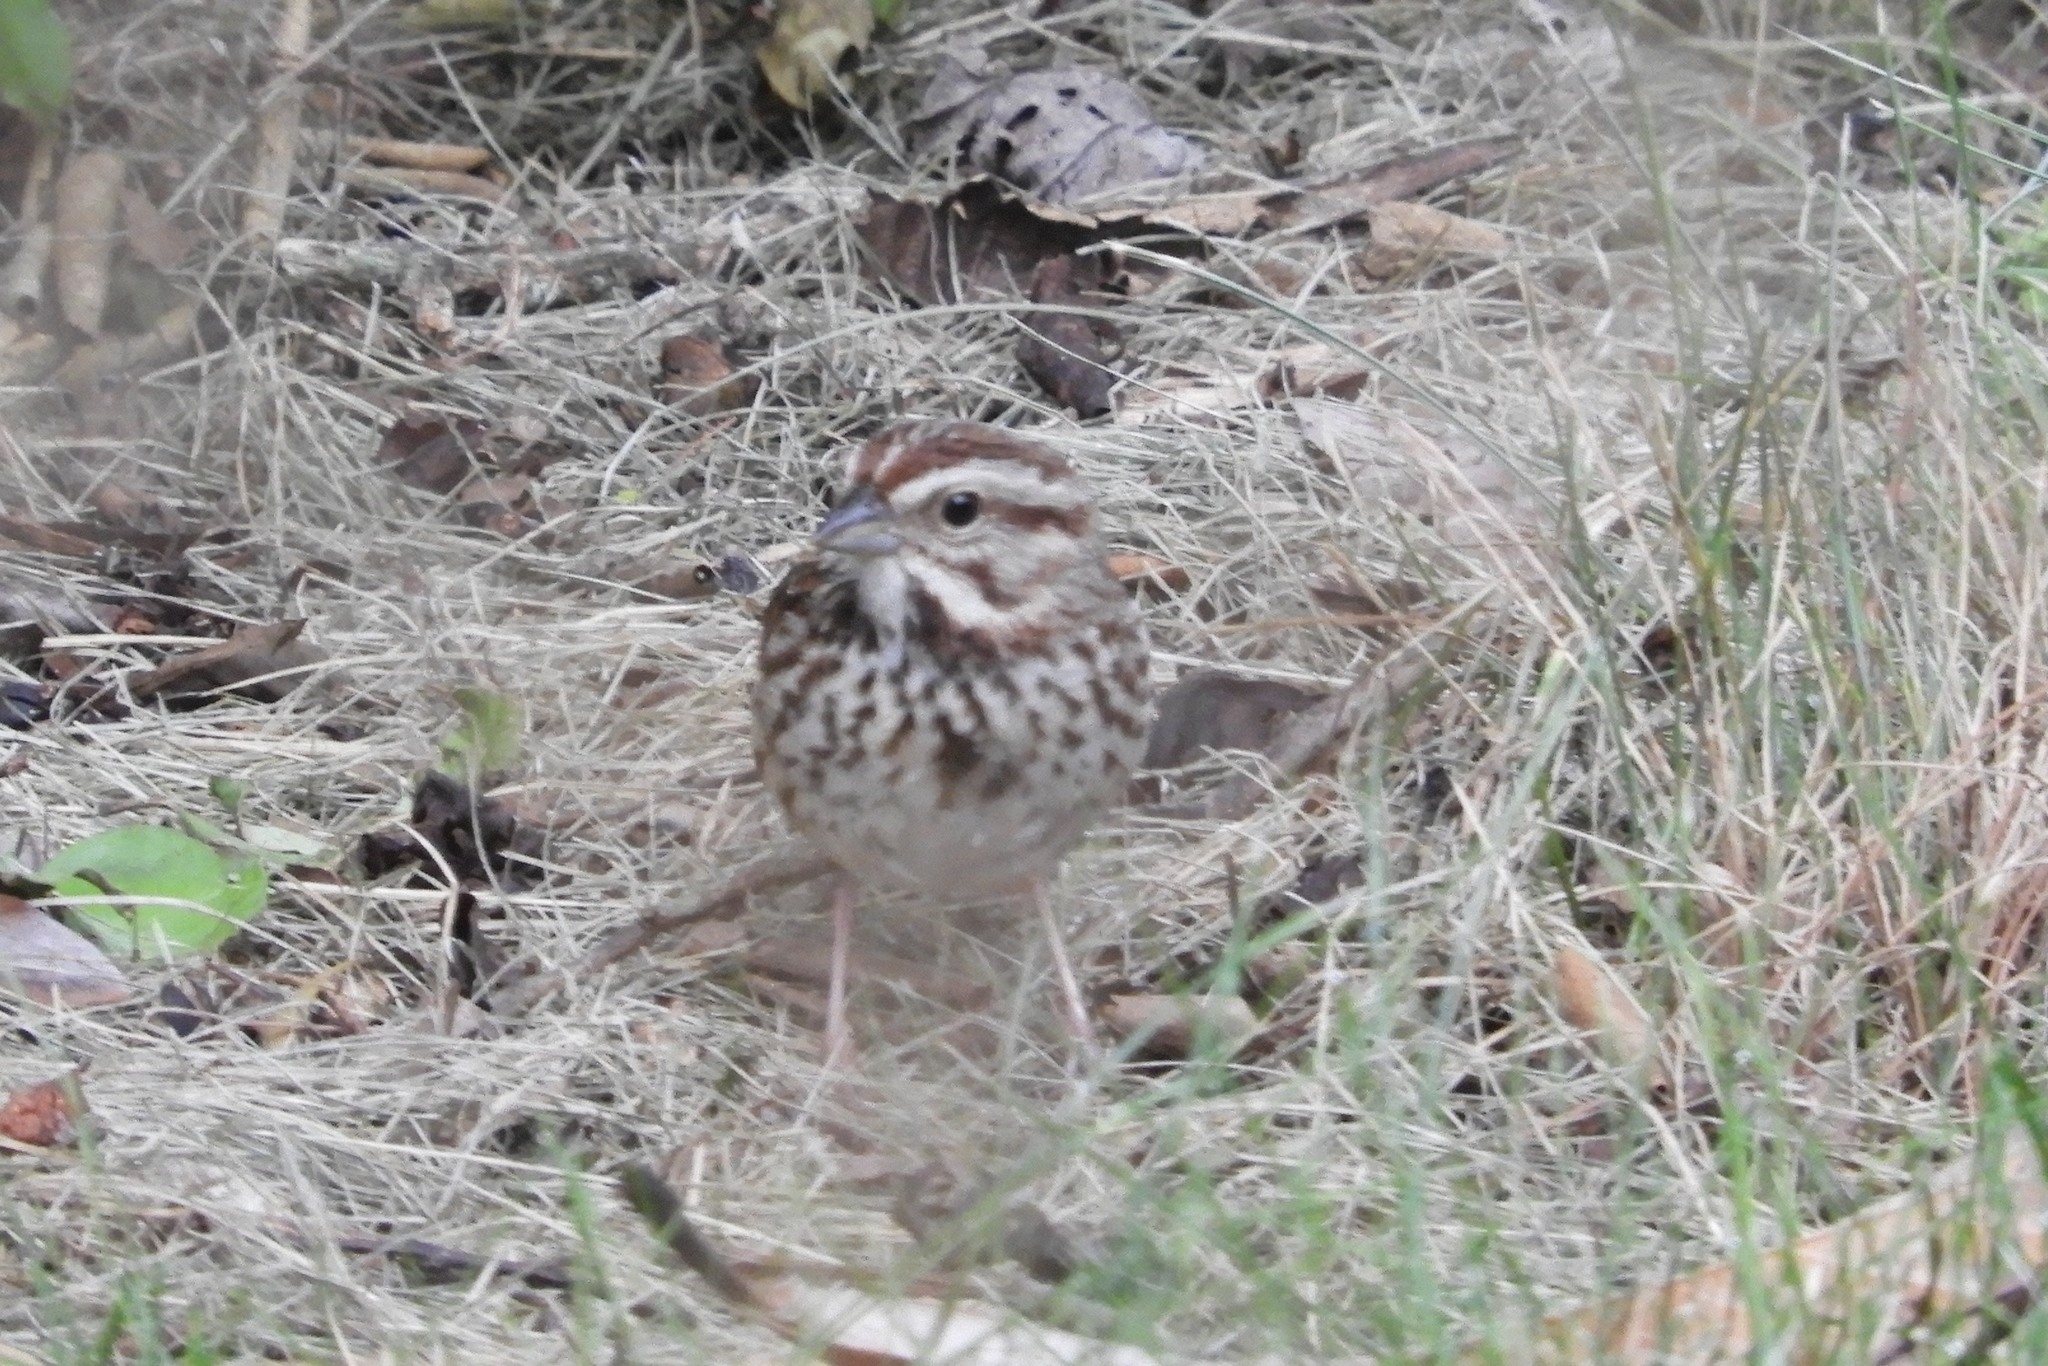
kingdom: Animalia
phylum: Chordata
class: Aves
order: Passeriformes
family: Passerellidae
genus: Melospiza
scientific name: Melospiza melodia
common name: Song sparrow
